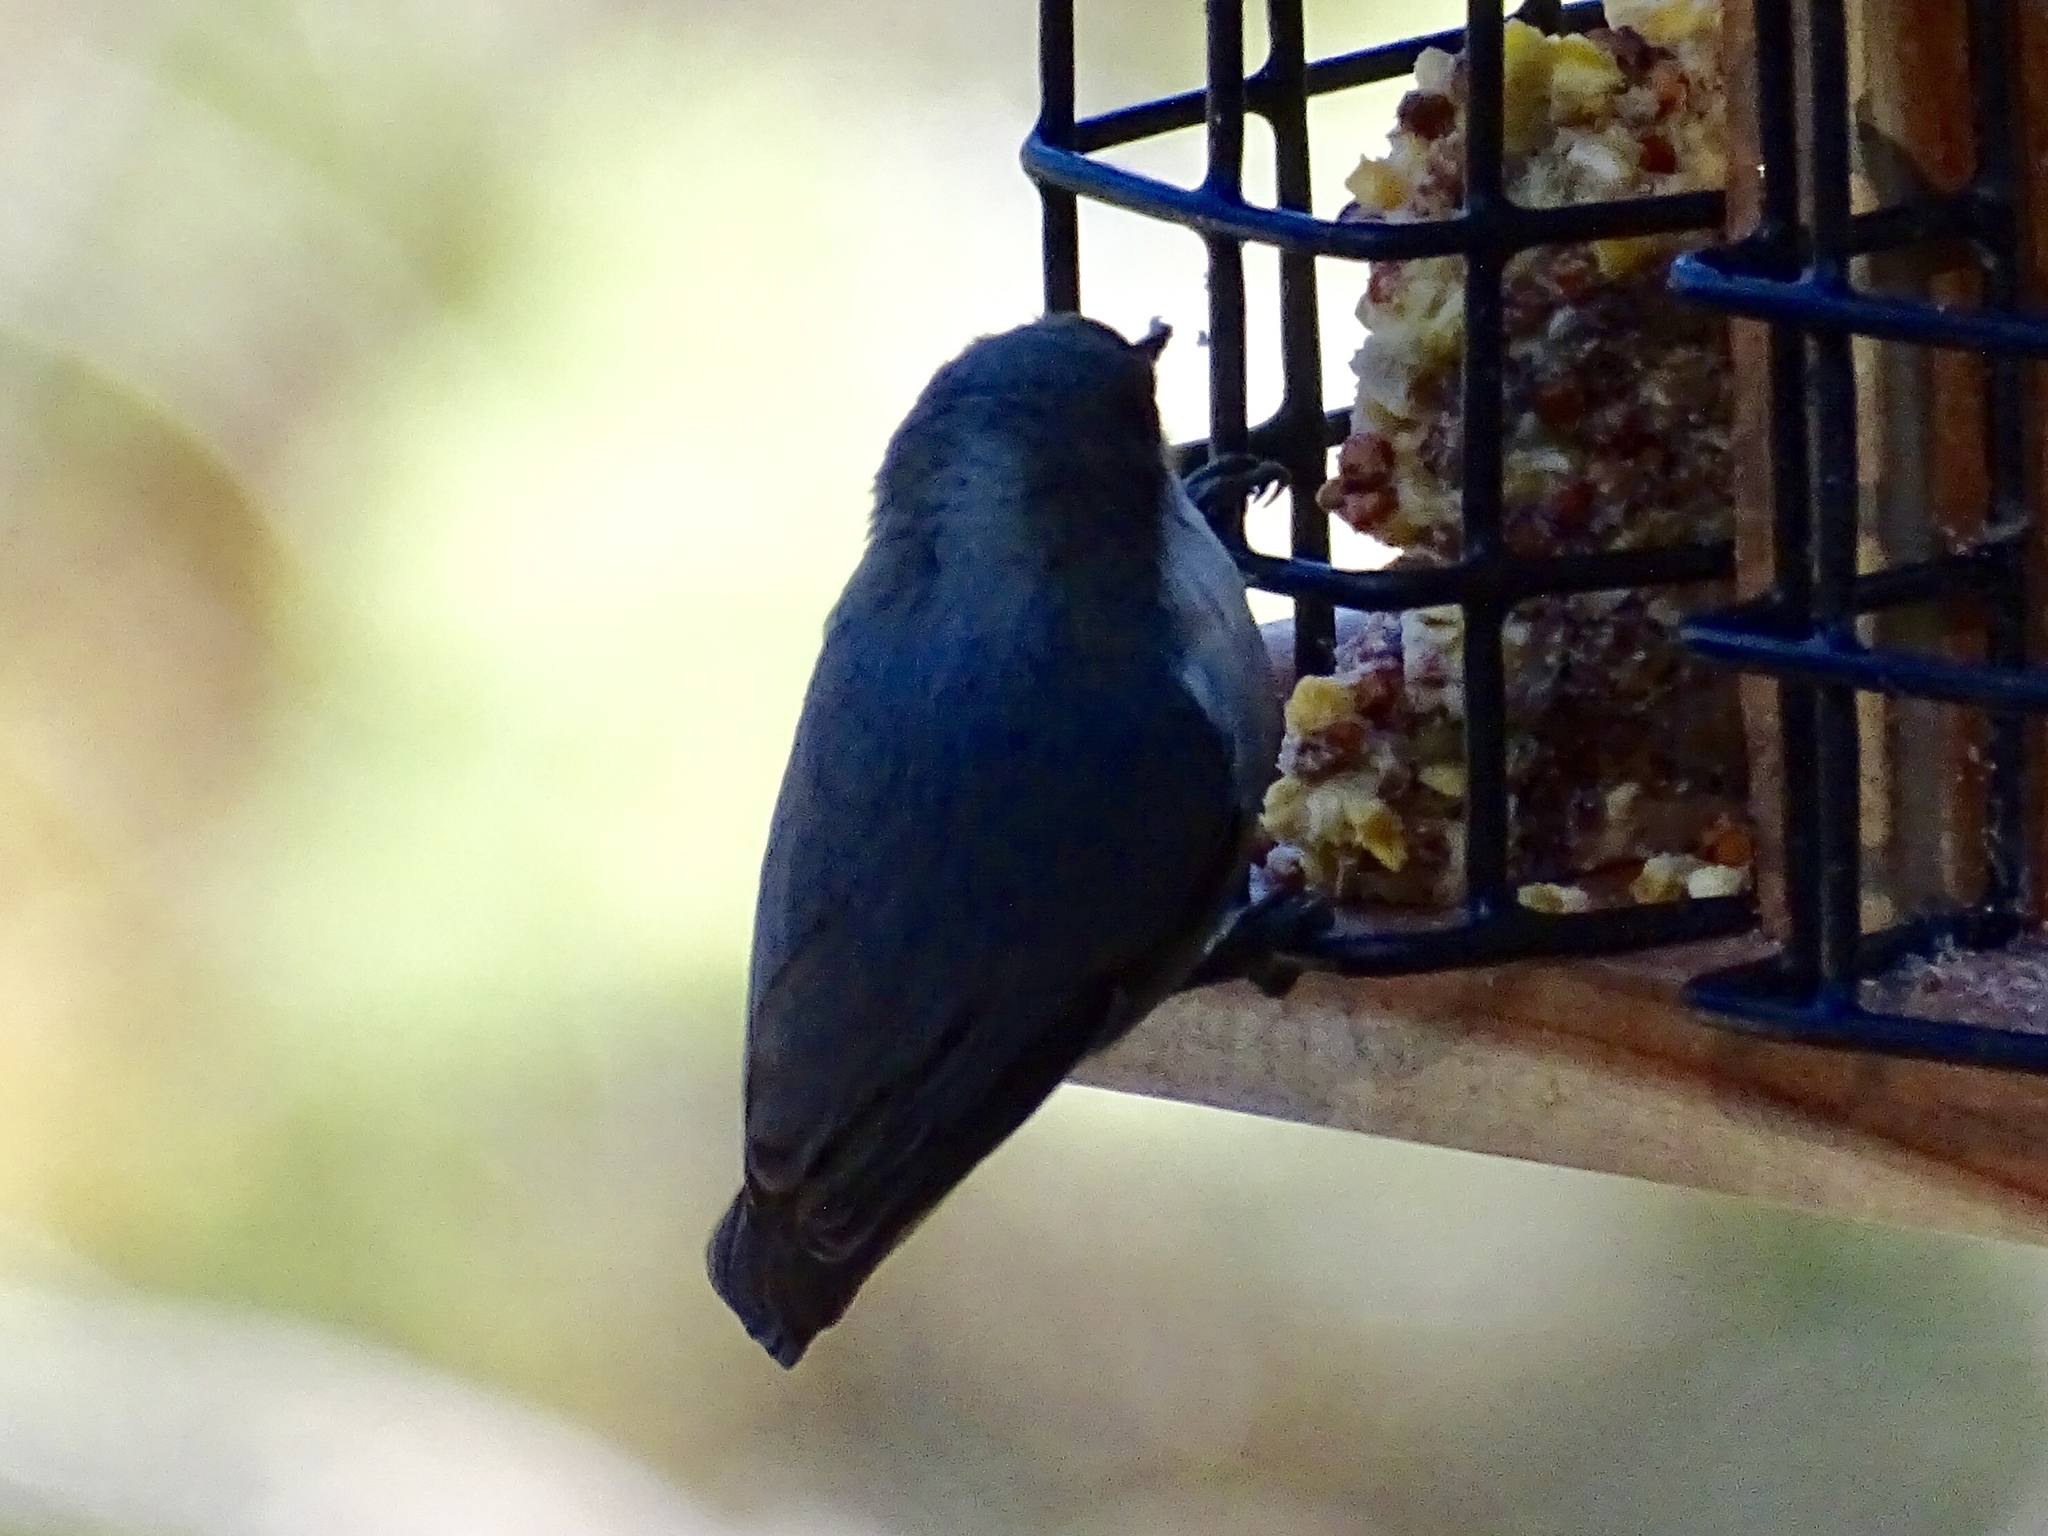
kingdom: Animalia
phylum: Chordata
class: Aves
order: Passeriformes
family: Sittidae
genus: Sitta
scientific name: Sitta pygmaea
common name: Pygmy nuthatch
